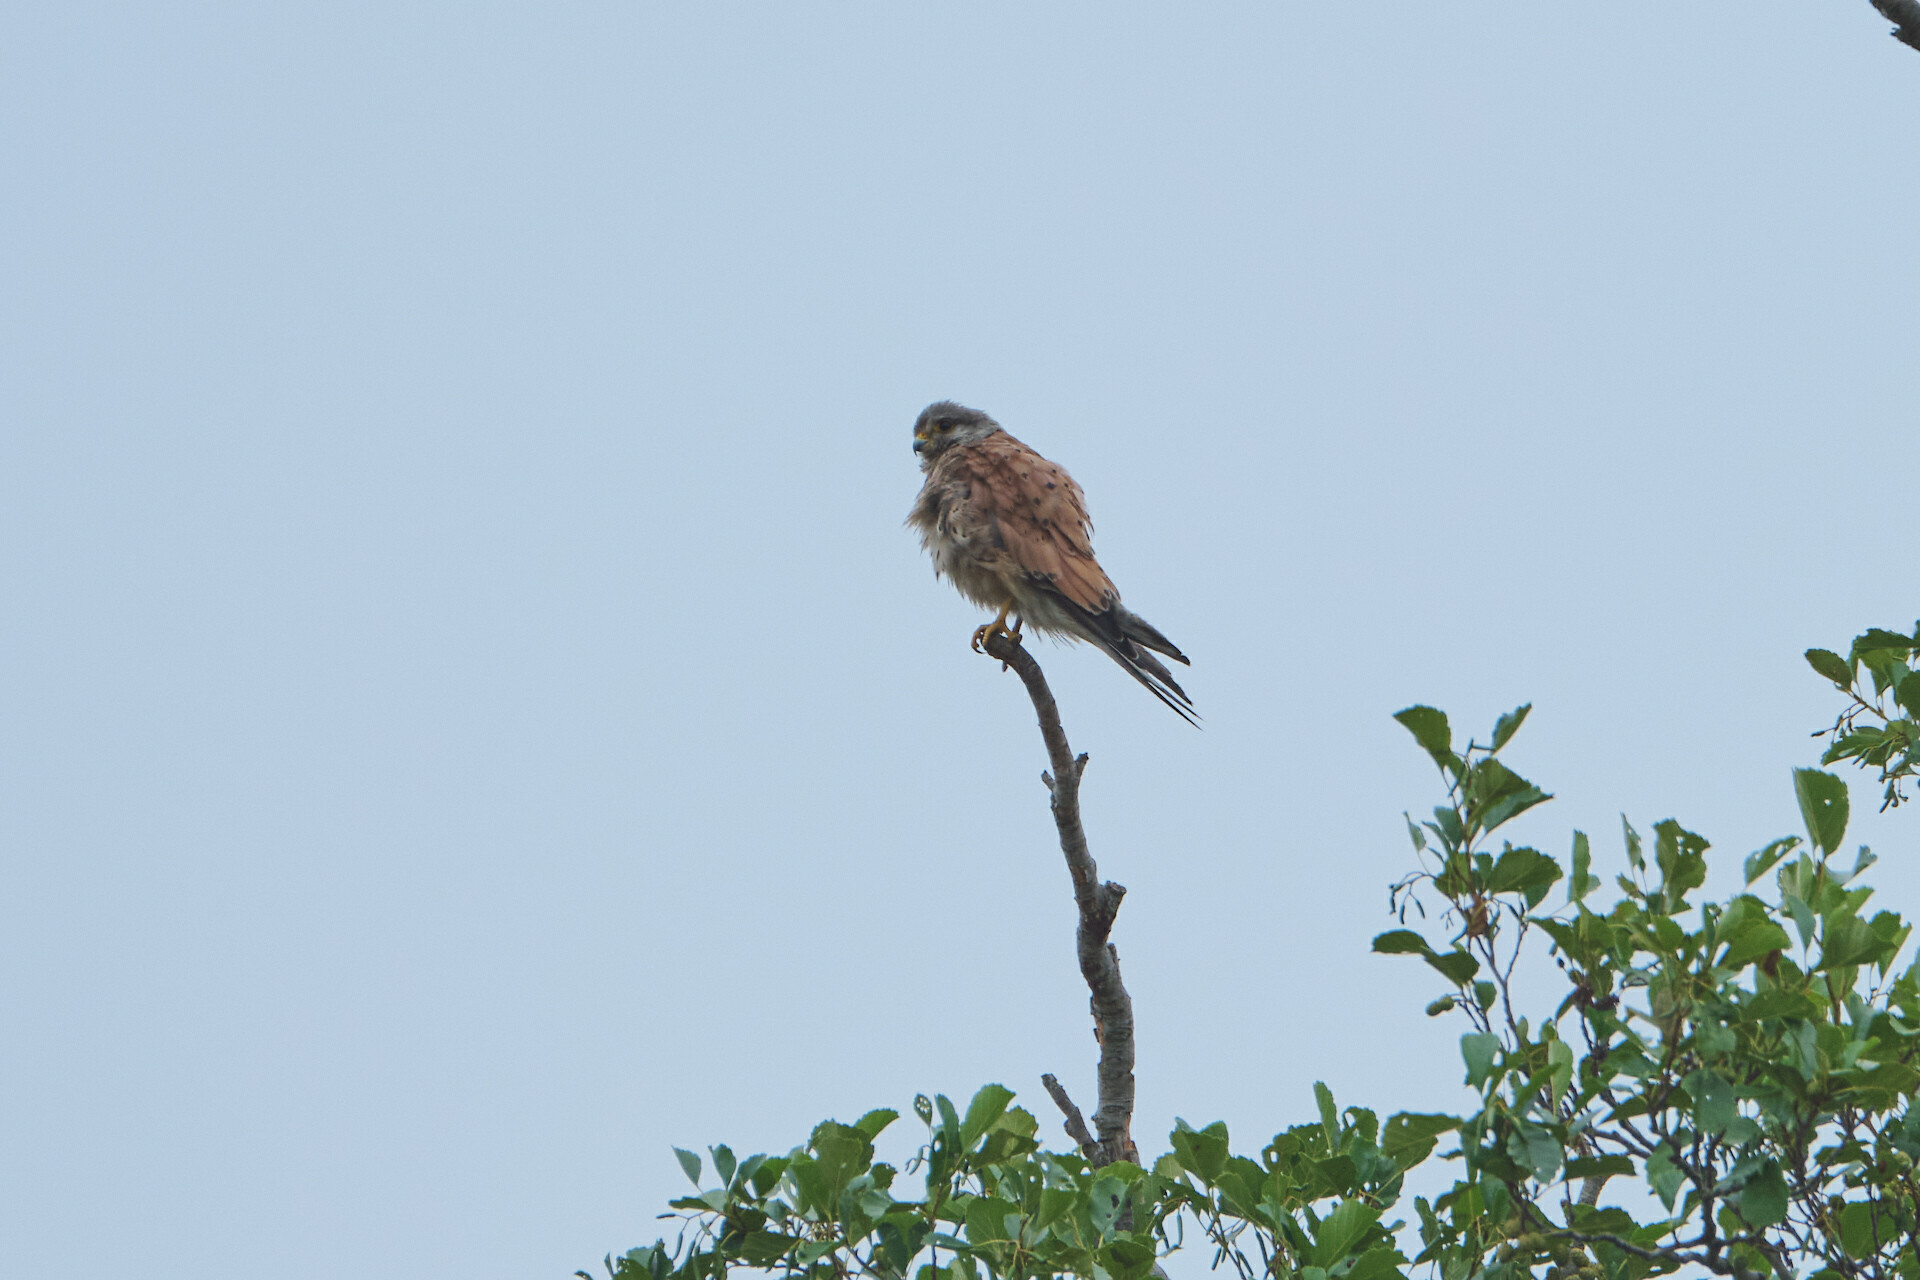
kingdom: Animalia
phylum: Chordata
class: Aves
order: Falconiformes
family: Falconidae
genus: Falco
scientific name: Falco tinnunculus
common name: Common kestrel
